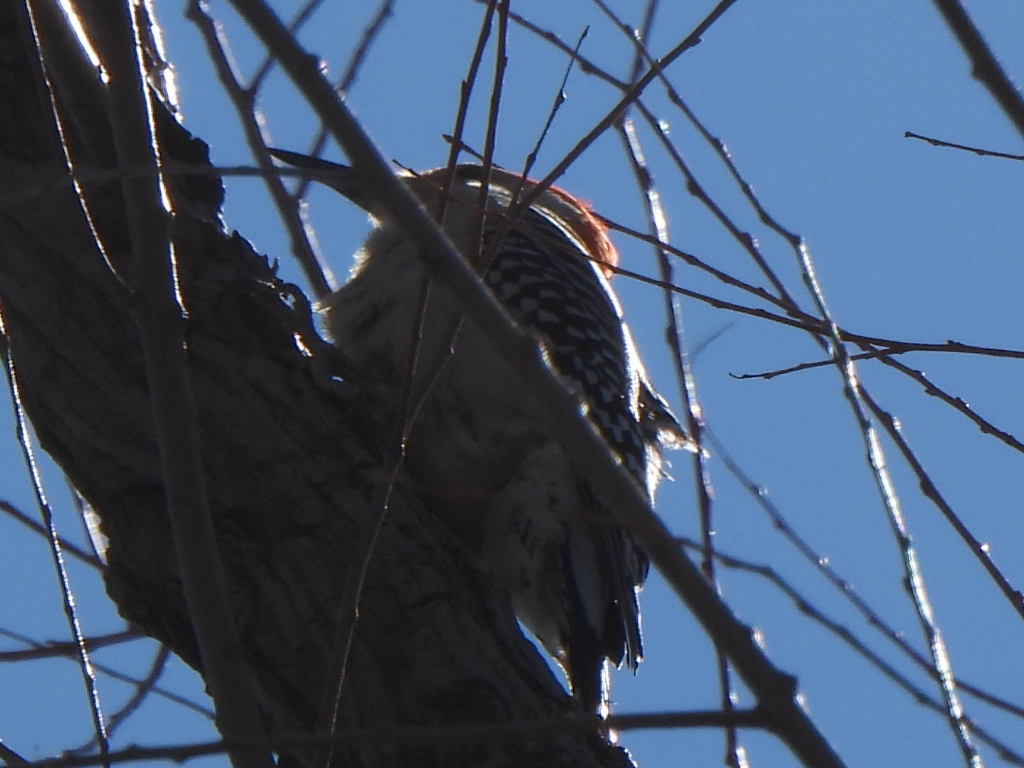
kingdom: Animalia
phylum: Chordata
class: Aves
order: Piciformes
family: Picidae
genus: Melanerpes
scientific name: Melanerpes carolinus
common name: Red-bellied woodpecker
